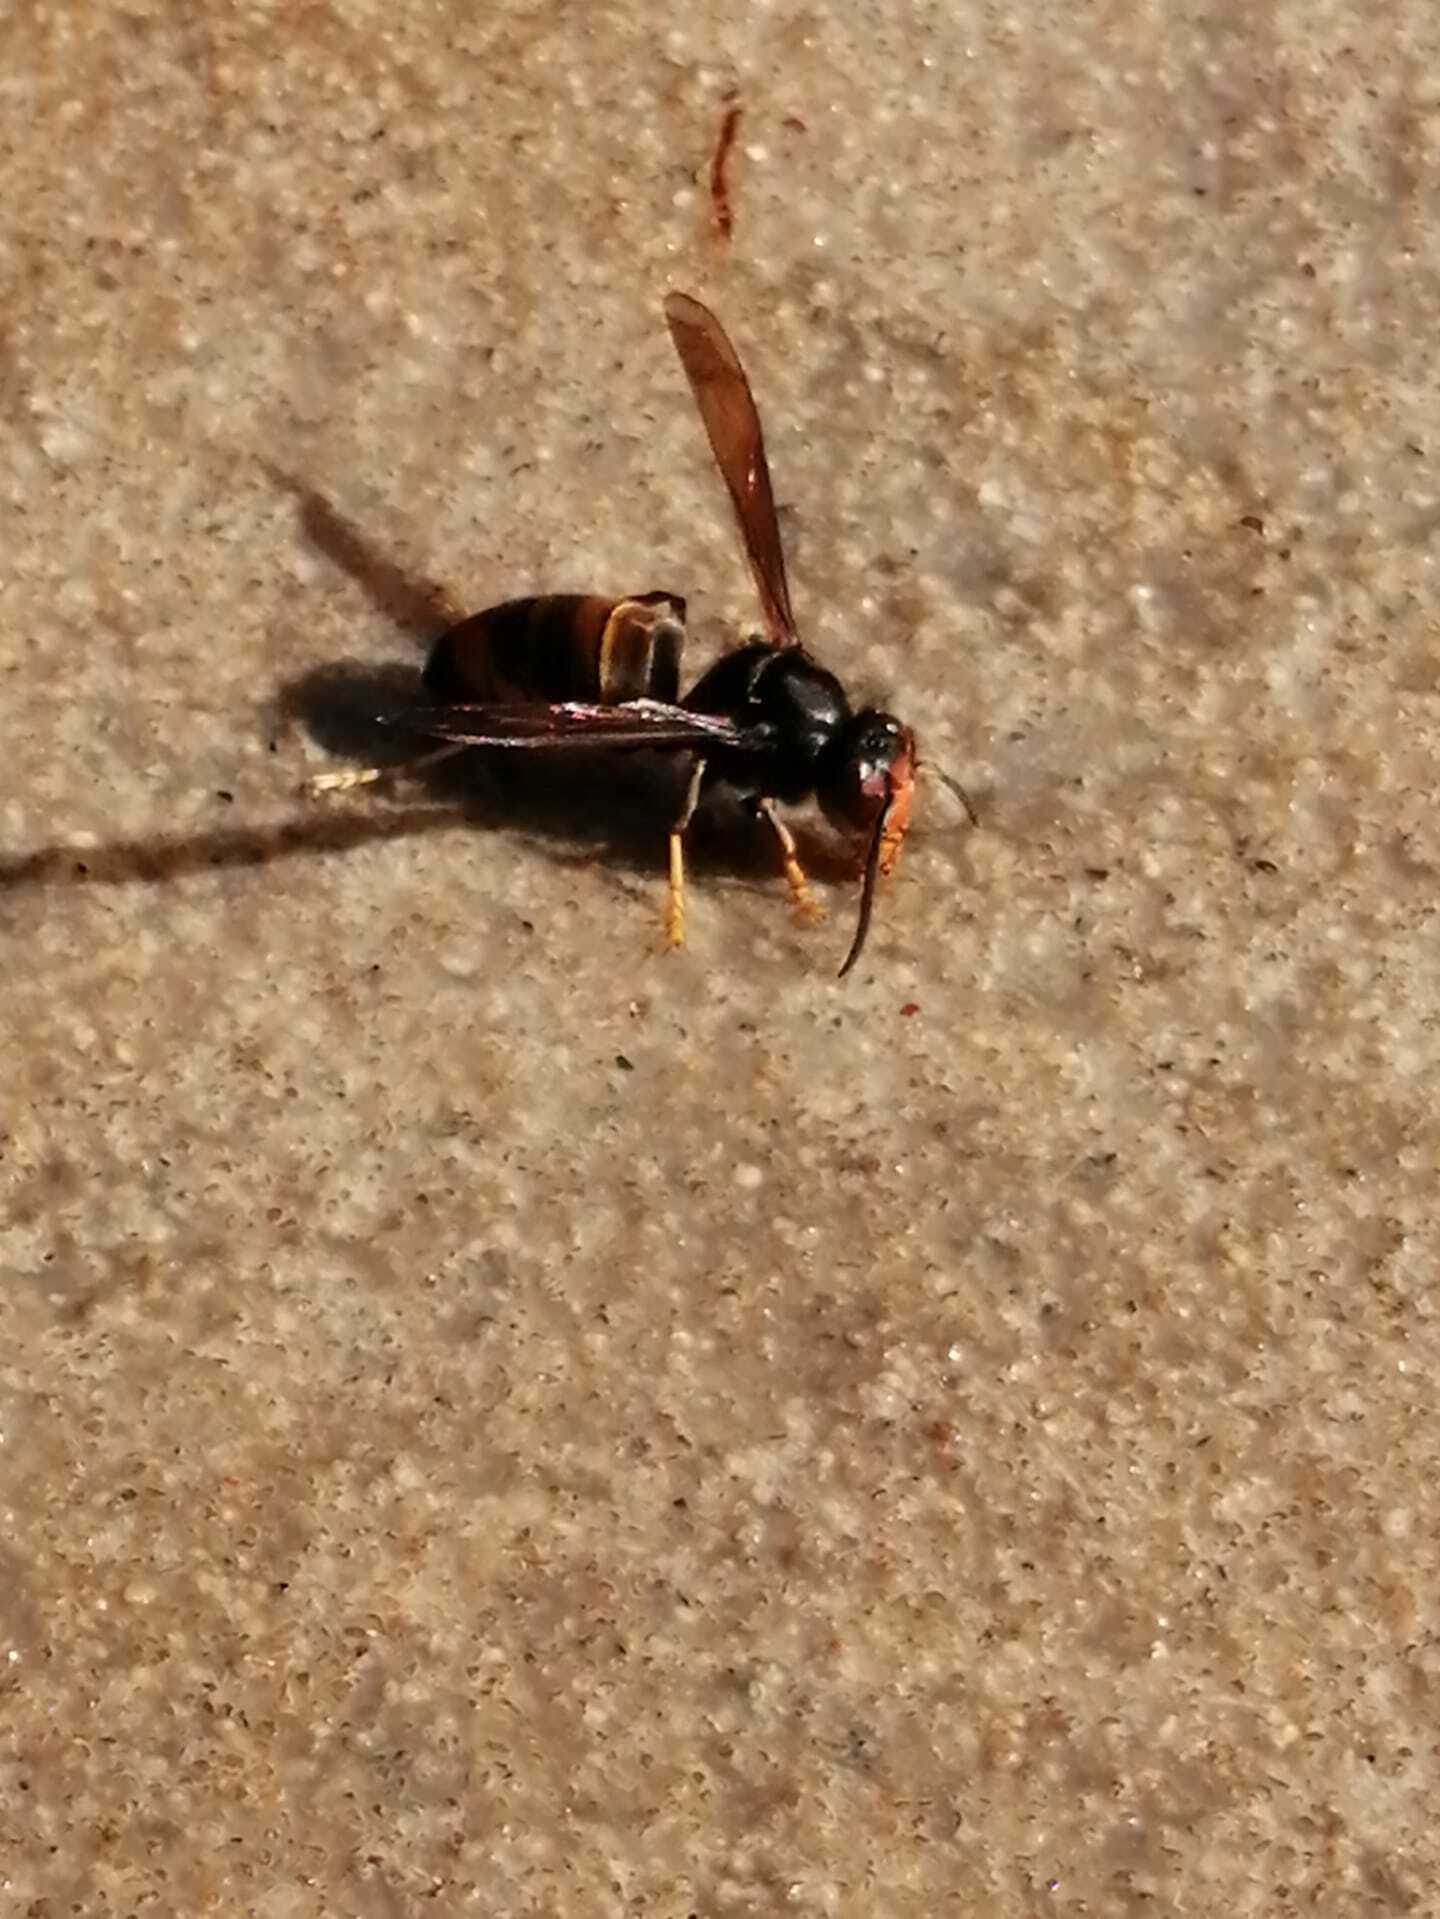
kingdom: Animalia
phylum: Arthropoda
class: Insecta
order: Hymenoptera
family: Vespidae
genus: Vespa
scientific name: Vespa velutina
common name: Asian hornet
